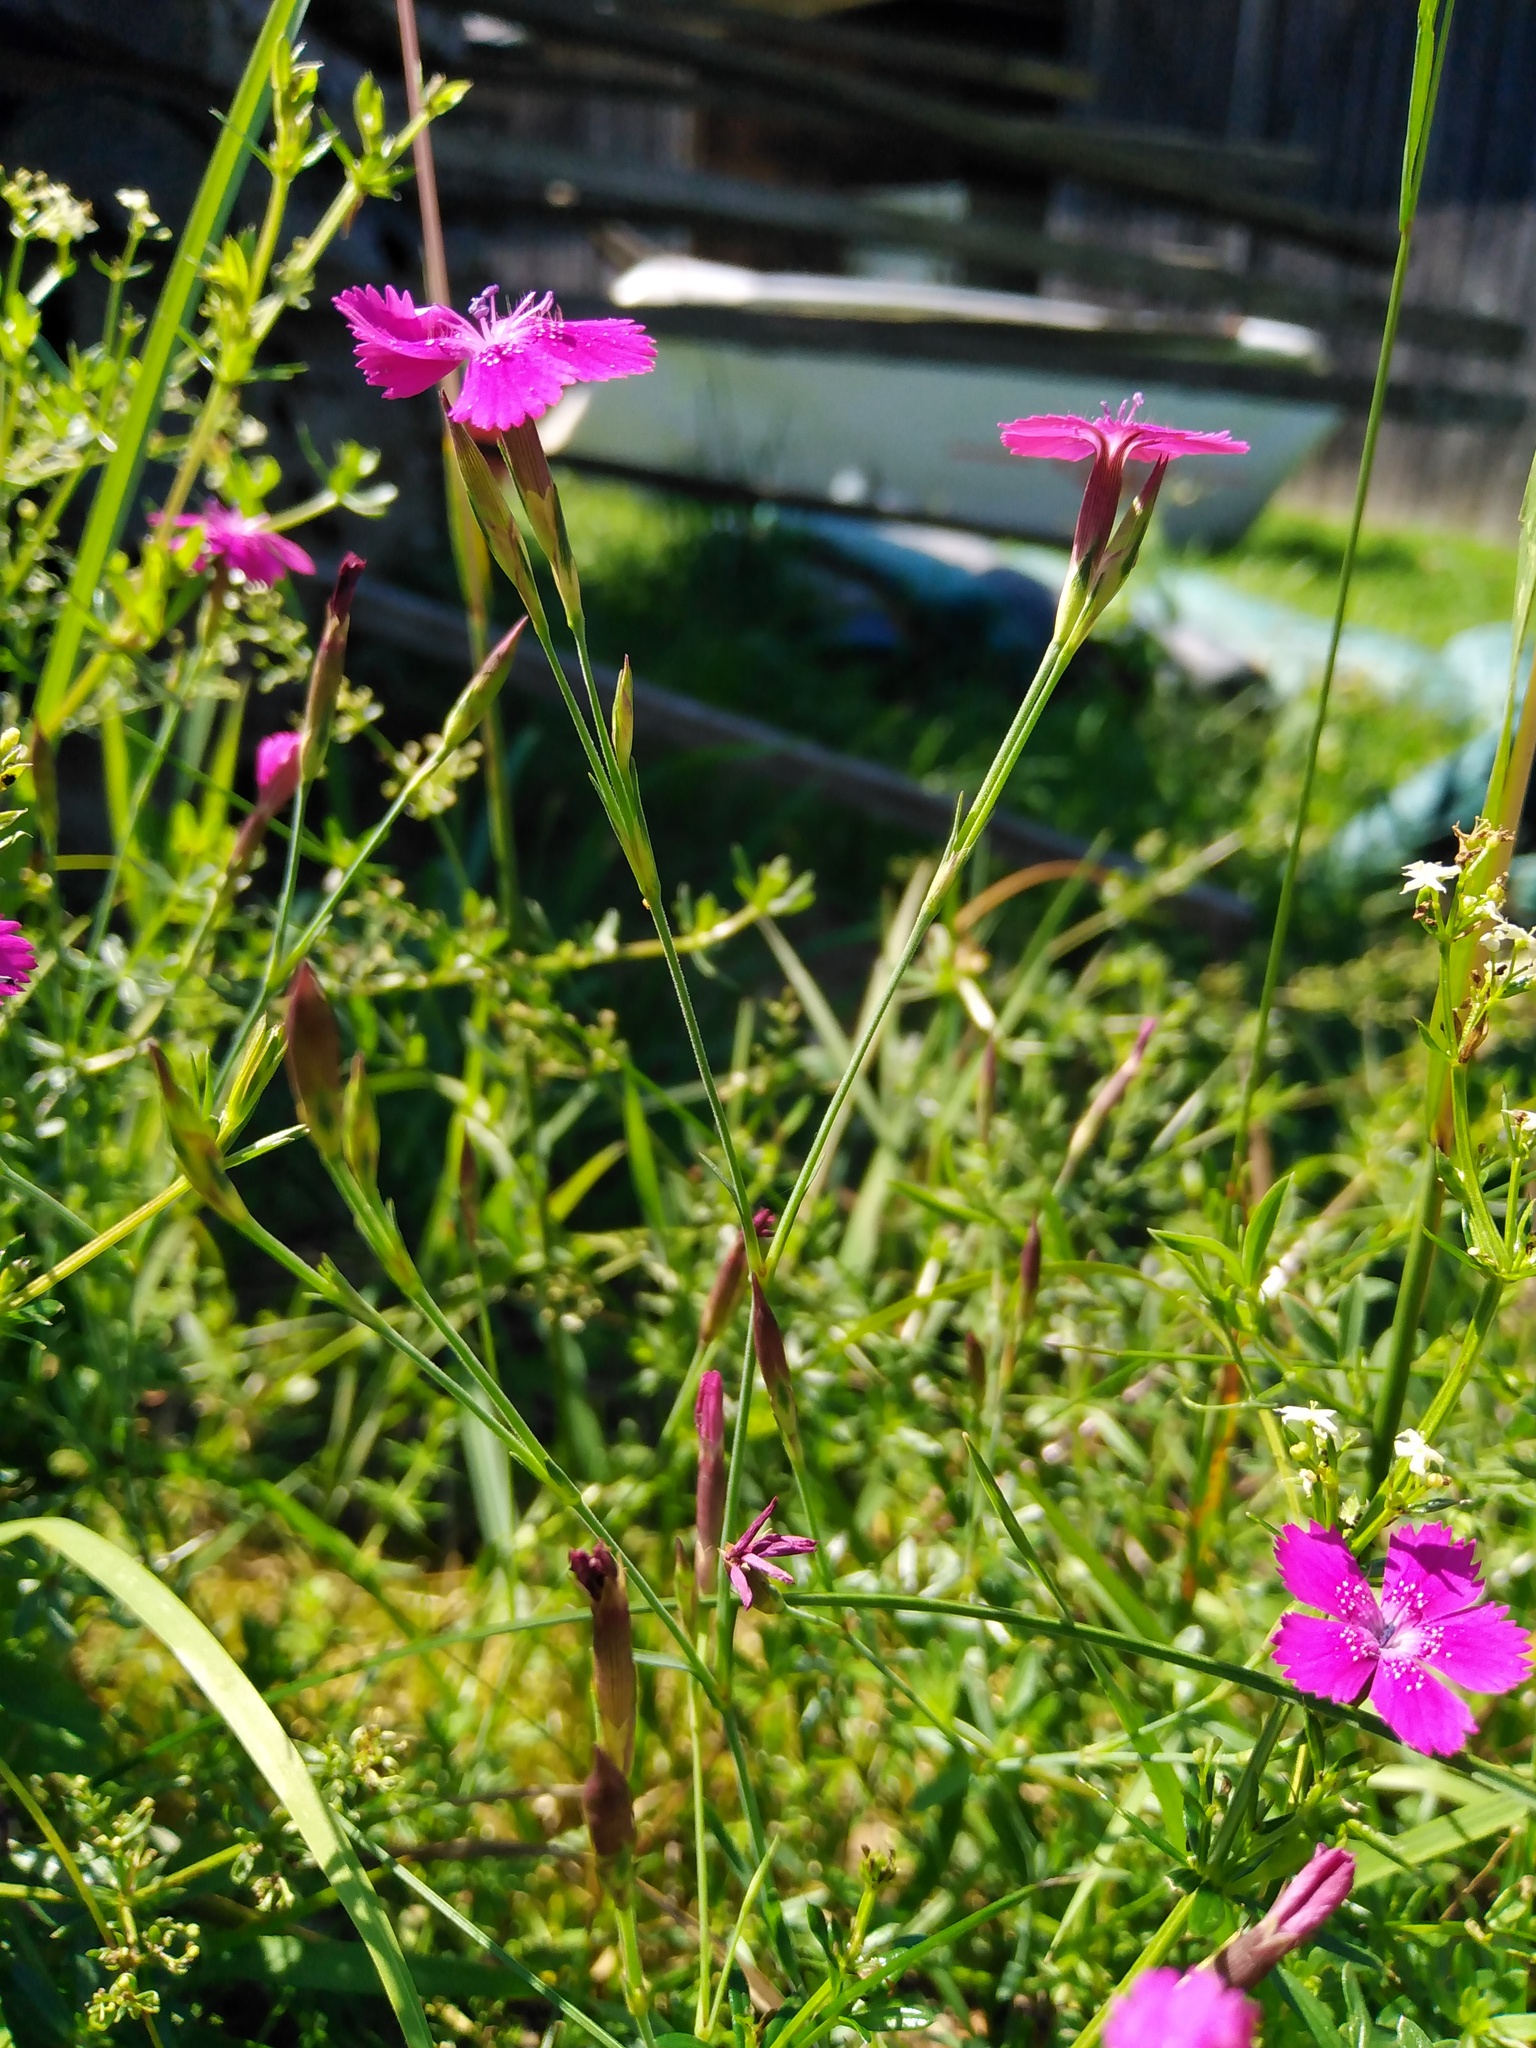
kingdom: Plantae
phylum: Tracheophyta
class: Magnoliopsida
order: Caryophyllales
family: Caryophyllaceae
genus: Dianthus
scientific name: Dianthus deltoides
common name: Maiden pink
